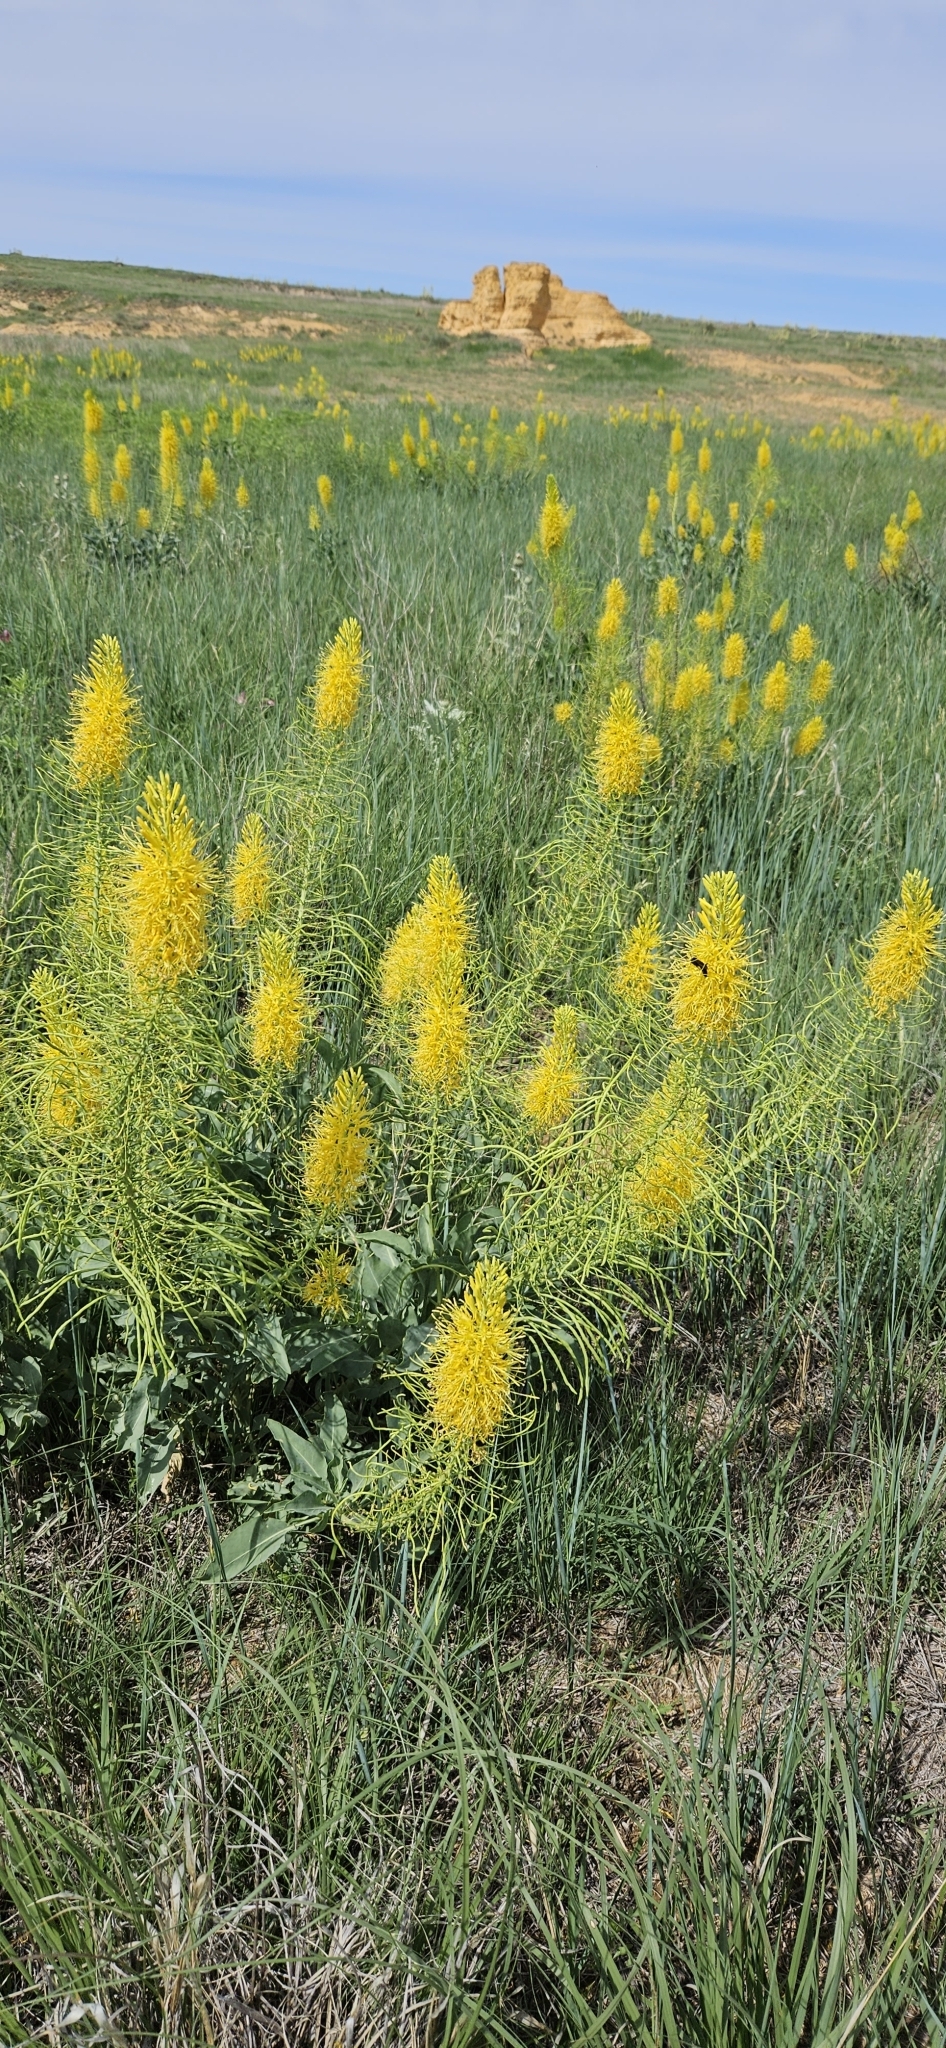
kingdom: Plantae
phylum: Tracheophyta
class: Magnoliopsida
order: Brassicales
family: Brassicaceae
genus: Stanleya
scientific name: Stanleya pinnata
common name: Prince's-plume
